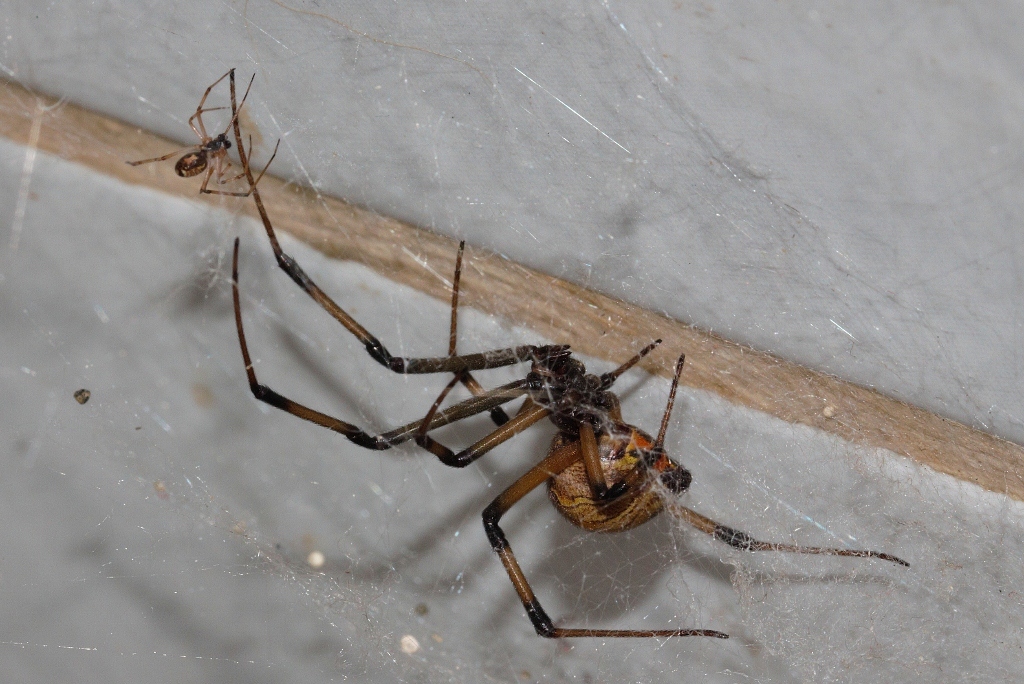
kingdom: Animalia
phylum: Arthropoda
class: Arachnida
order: Araneae
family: Theridiidae
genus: Latrodectus
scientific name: Latrodectus geometricus
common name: Brown widow spider
